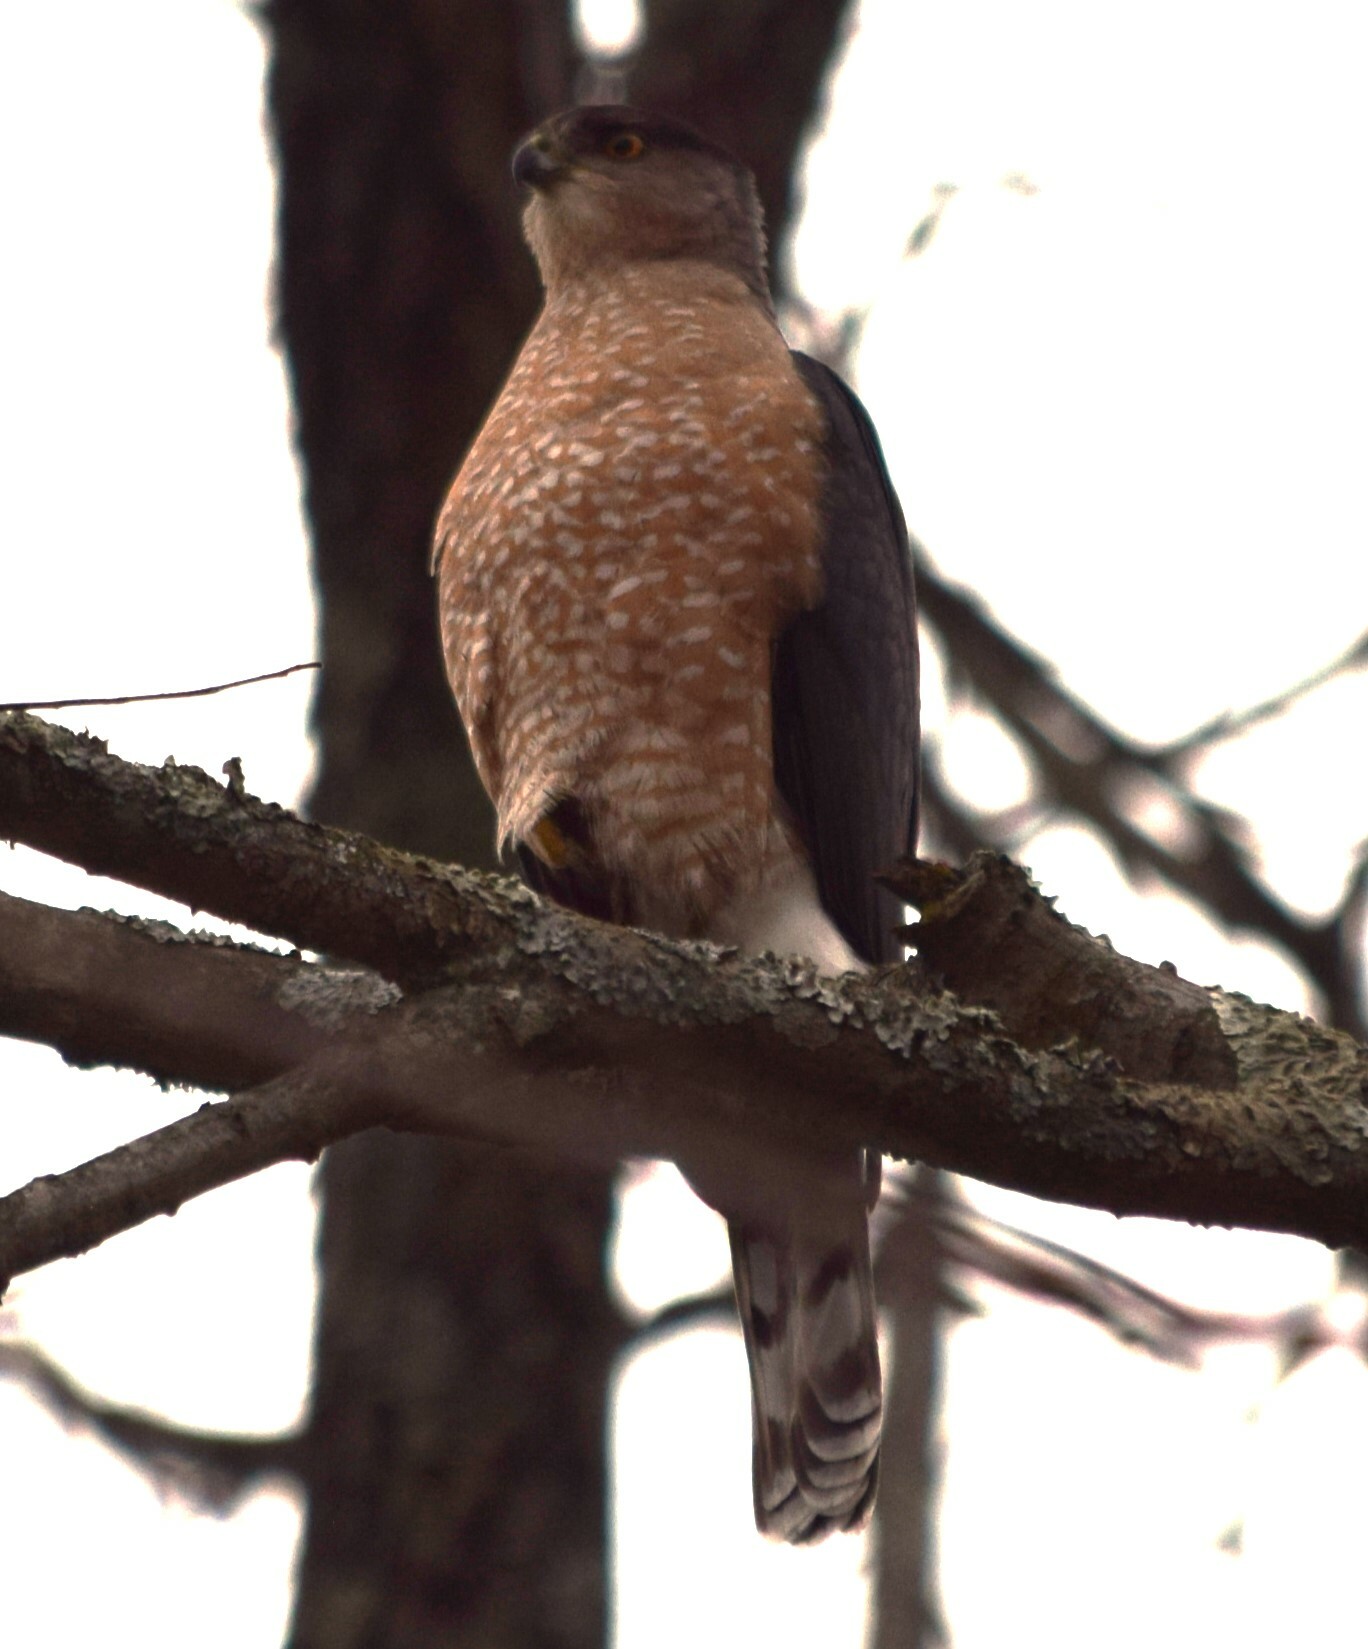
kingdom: Animalia
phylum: Chordata
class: Aves
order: Accipitriformes
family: Accipitridae
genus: Accipiter
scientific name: Accipiter cooperii
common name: Cooper's hawk
